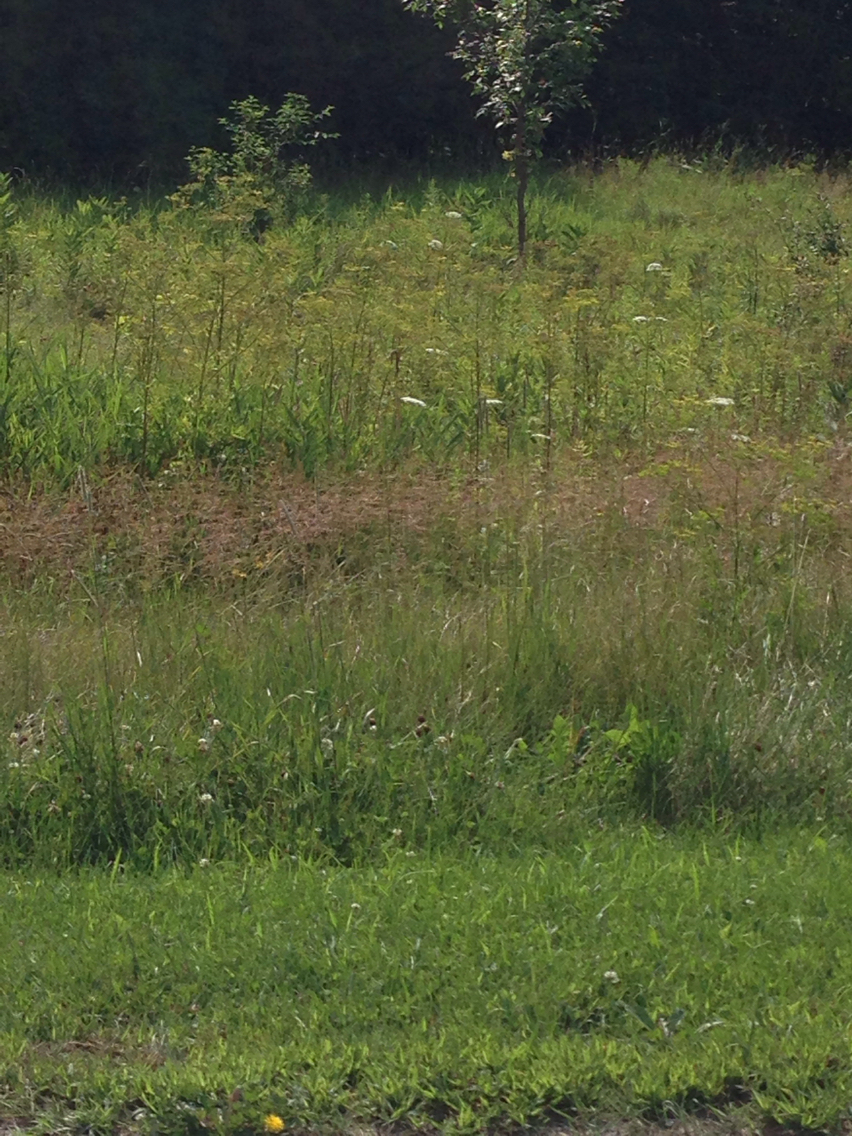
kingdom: Plantae
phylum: Tracheophyta
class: Magnoliopsida
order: Apiales
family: Apiaceae
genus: Pastinaca
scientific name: Pastinaca sativa
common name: Wild parsnip
